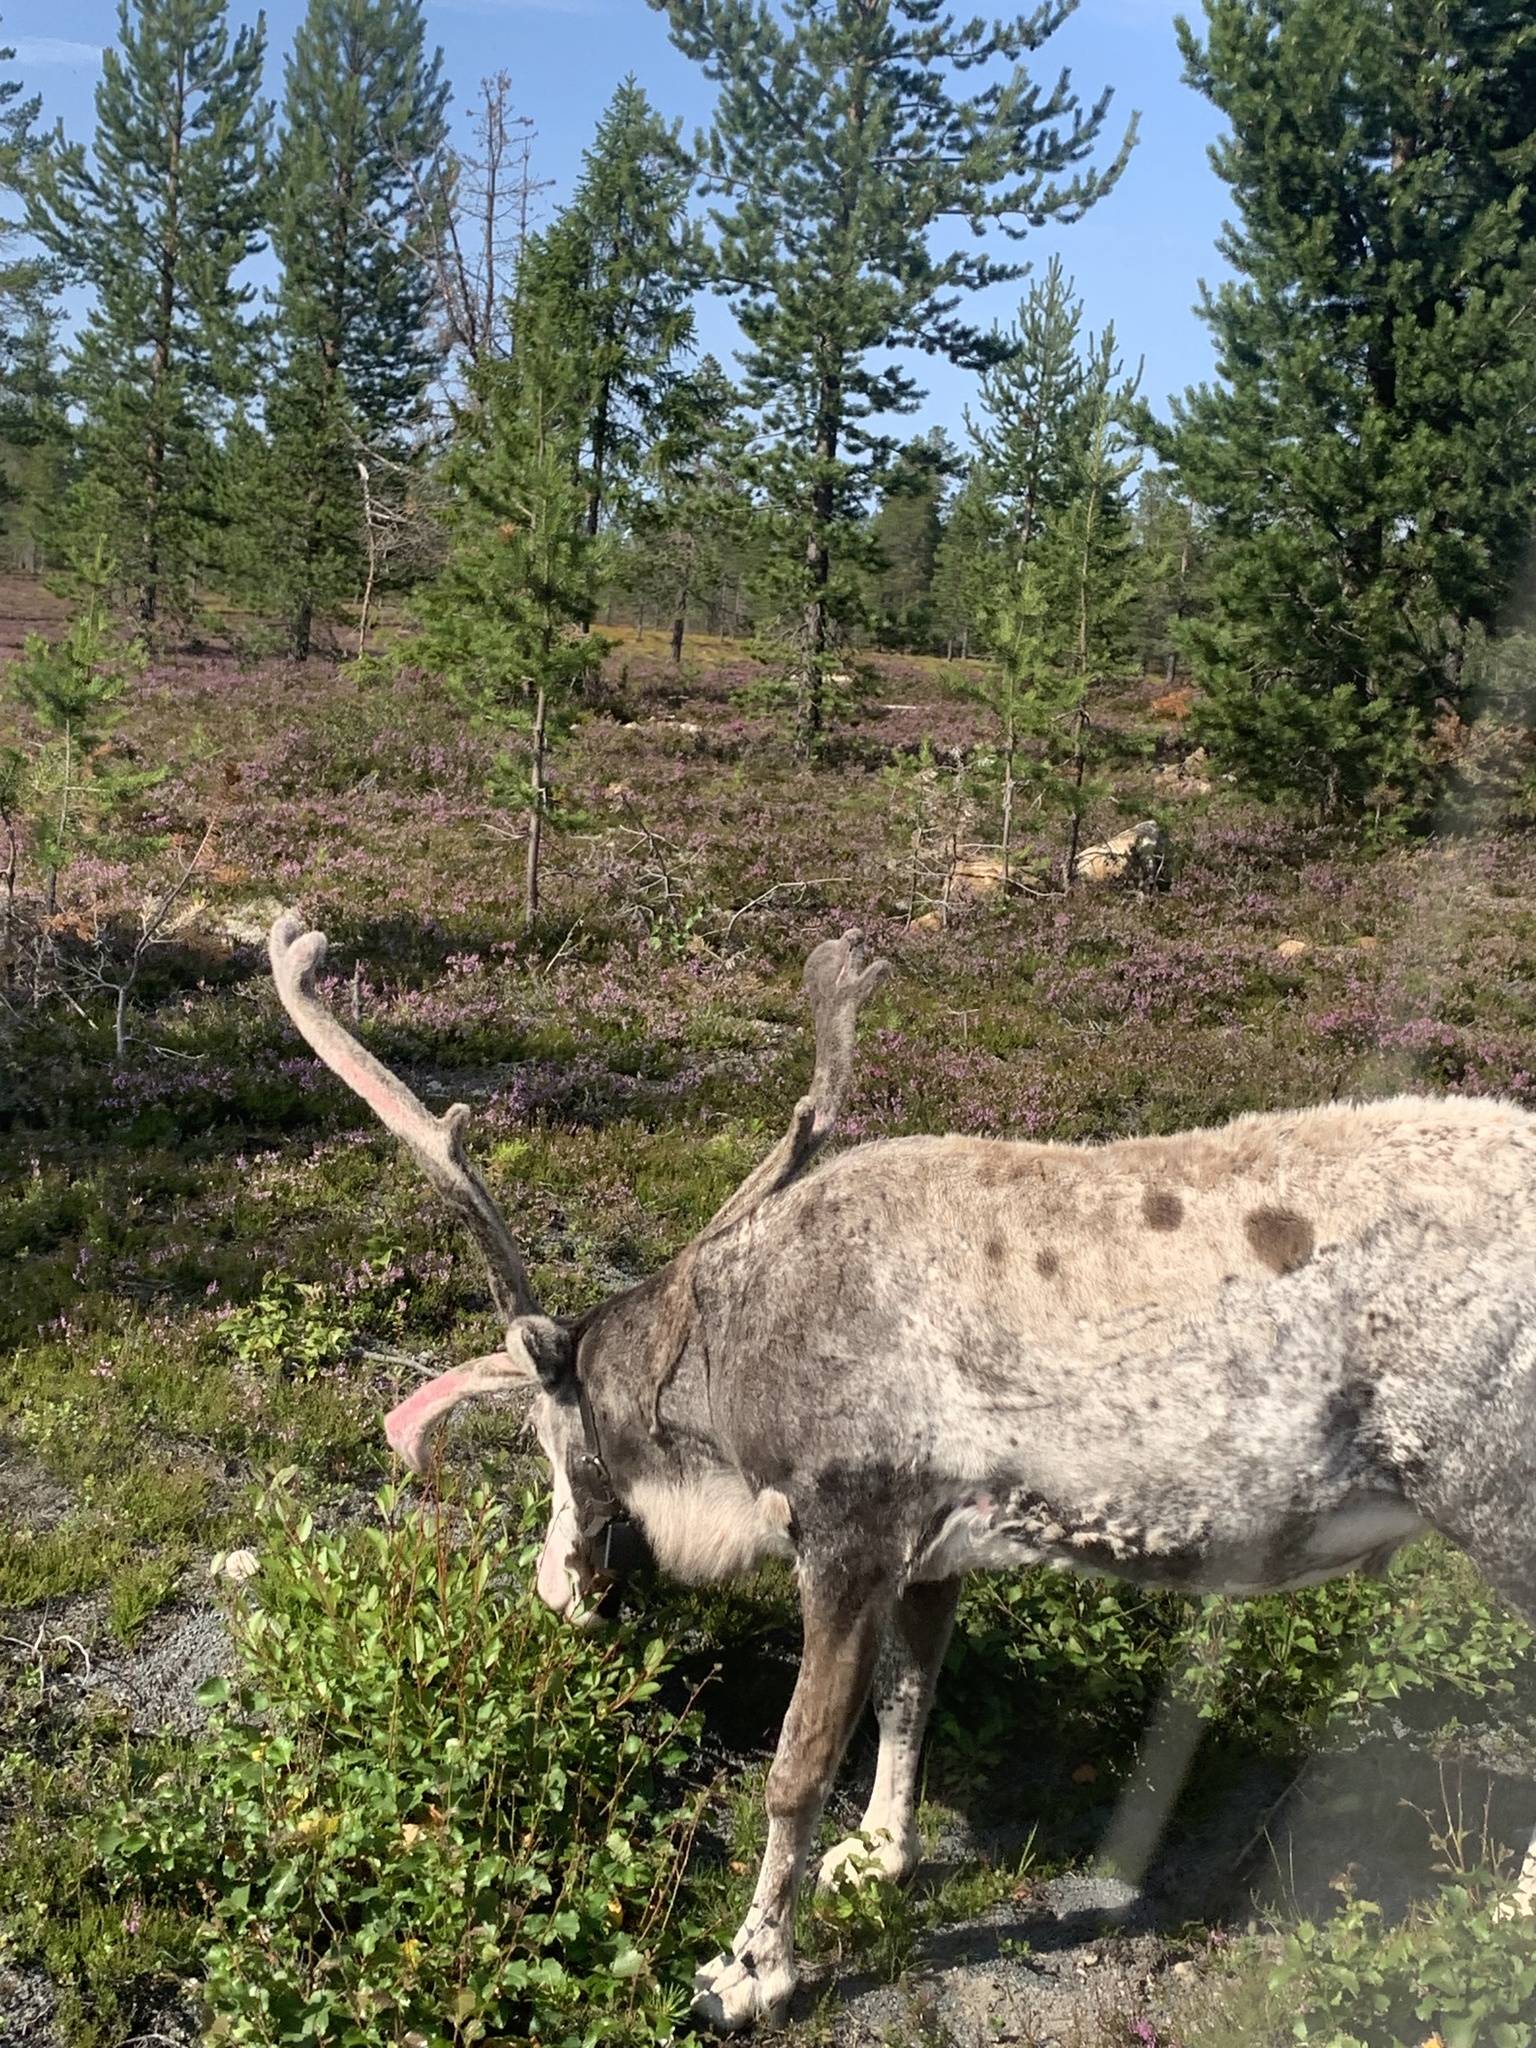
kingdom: Animalia
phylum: Chordata
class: Mammalia
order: Artiodactyla
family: Cervidae
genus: Rangifer
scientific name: Rangifer tarandus
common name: Reindeer
